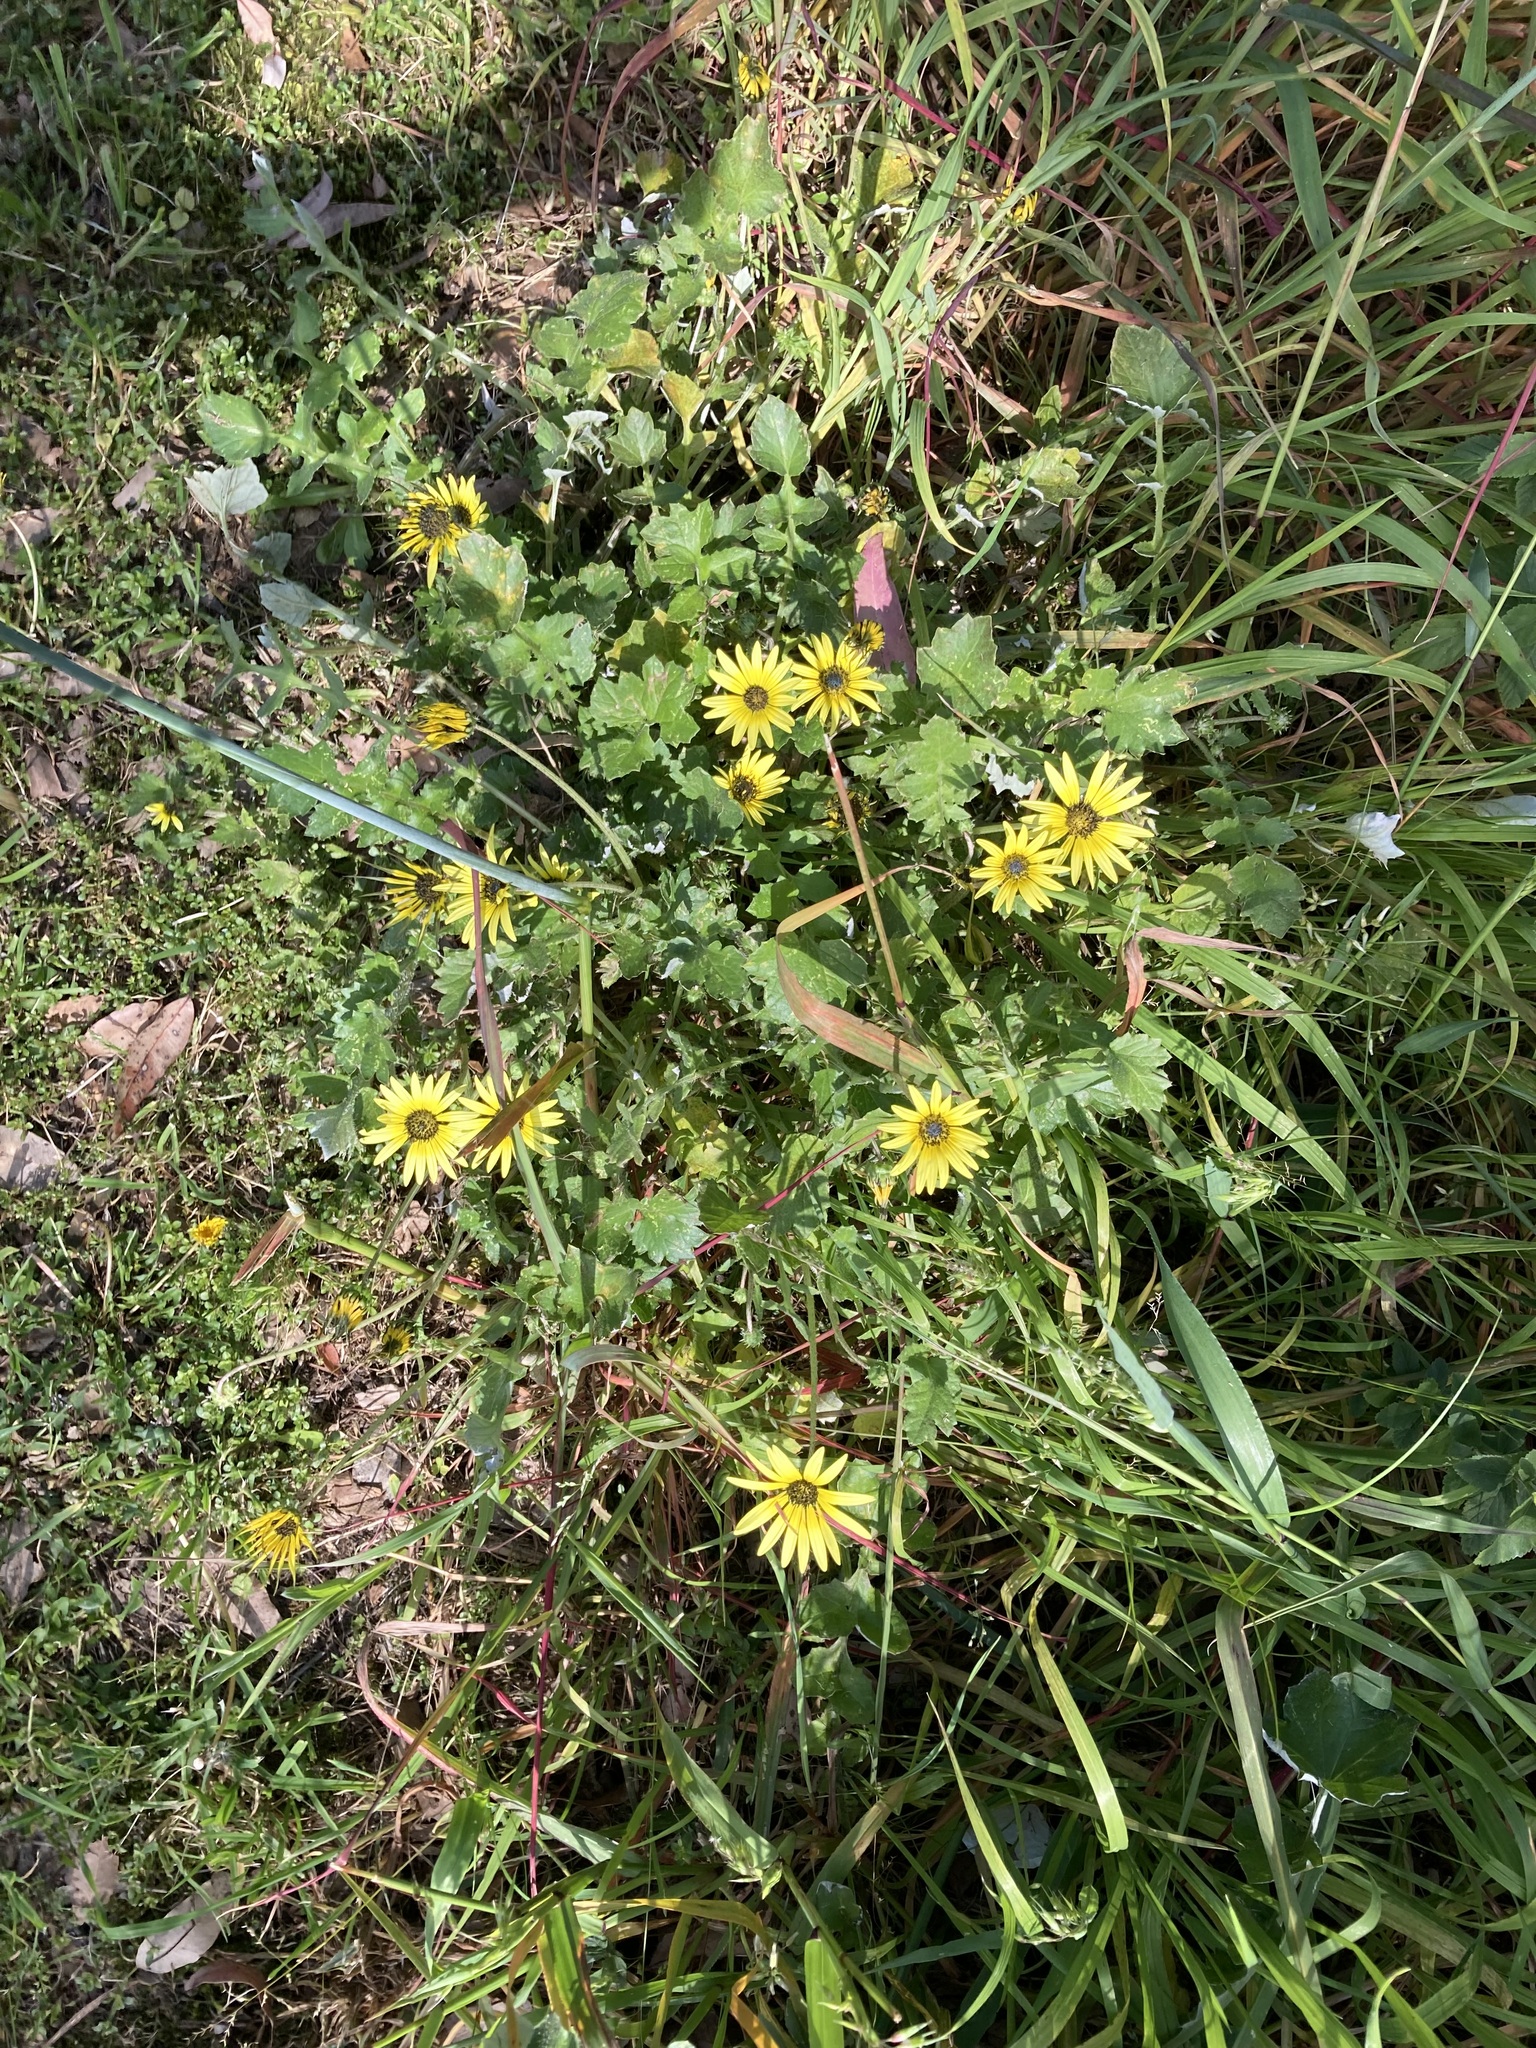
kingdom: Plantae
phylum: Tracheophyta
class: Magnoliopsida
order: Asterales
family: Asteraceae
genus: Arctotheca
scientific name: Arctotheca calendula
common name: Capeweed
